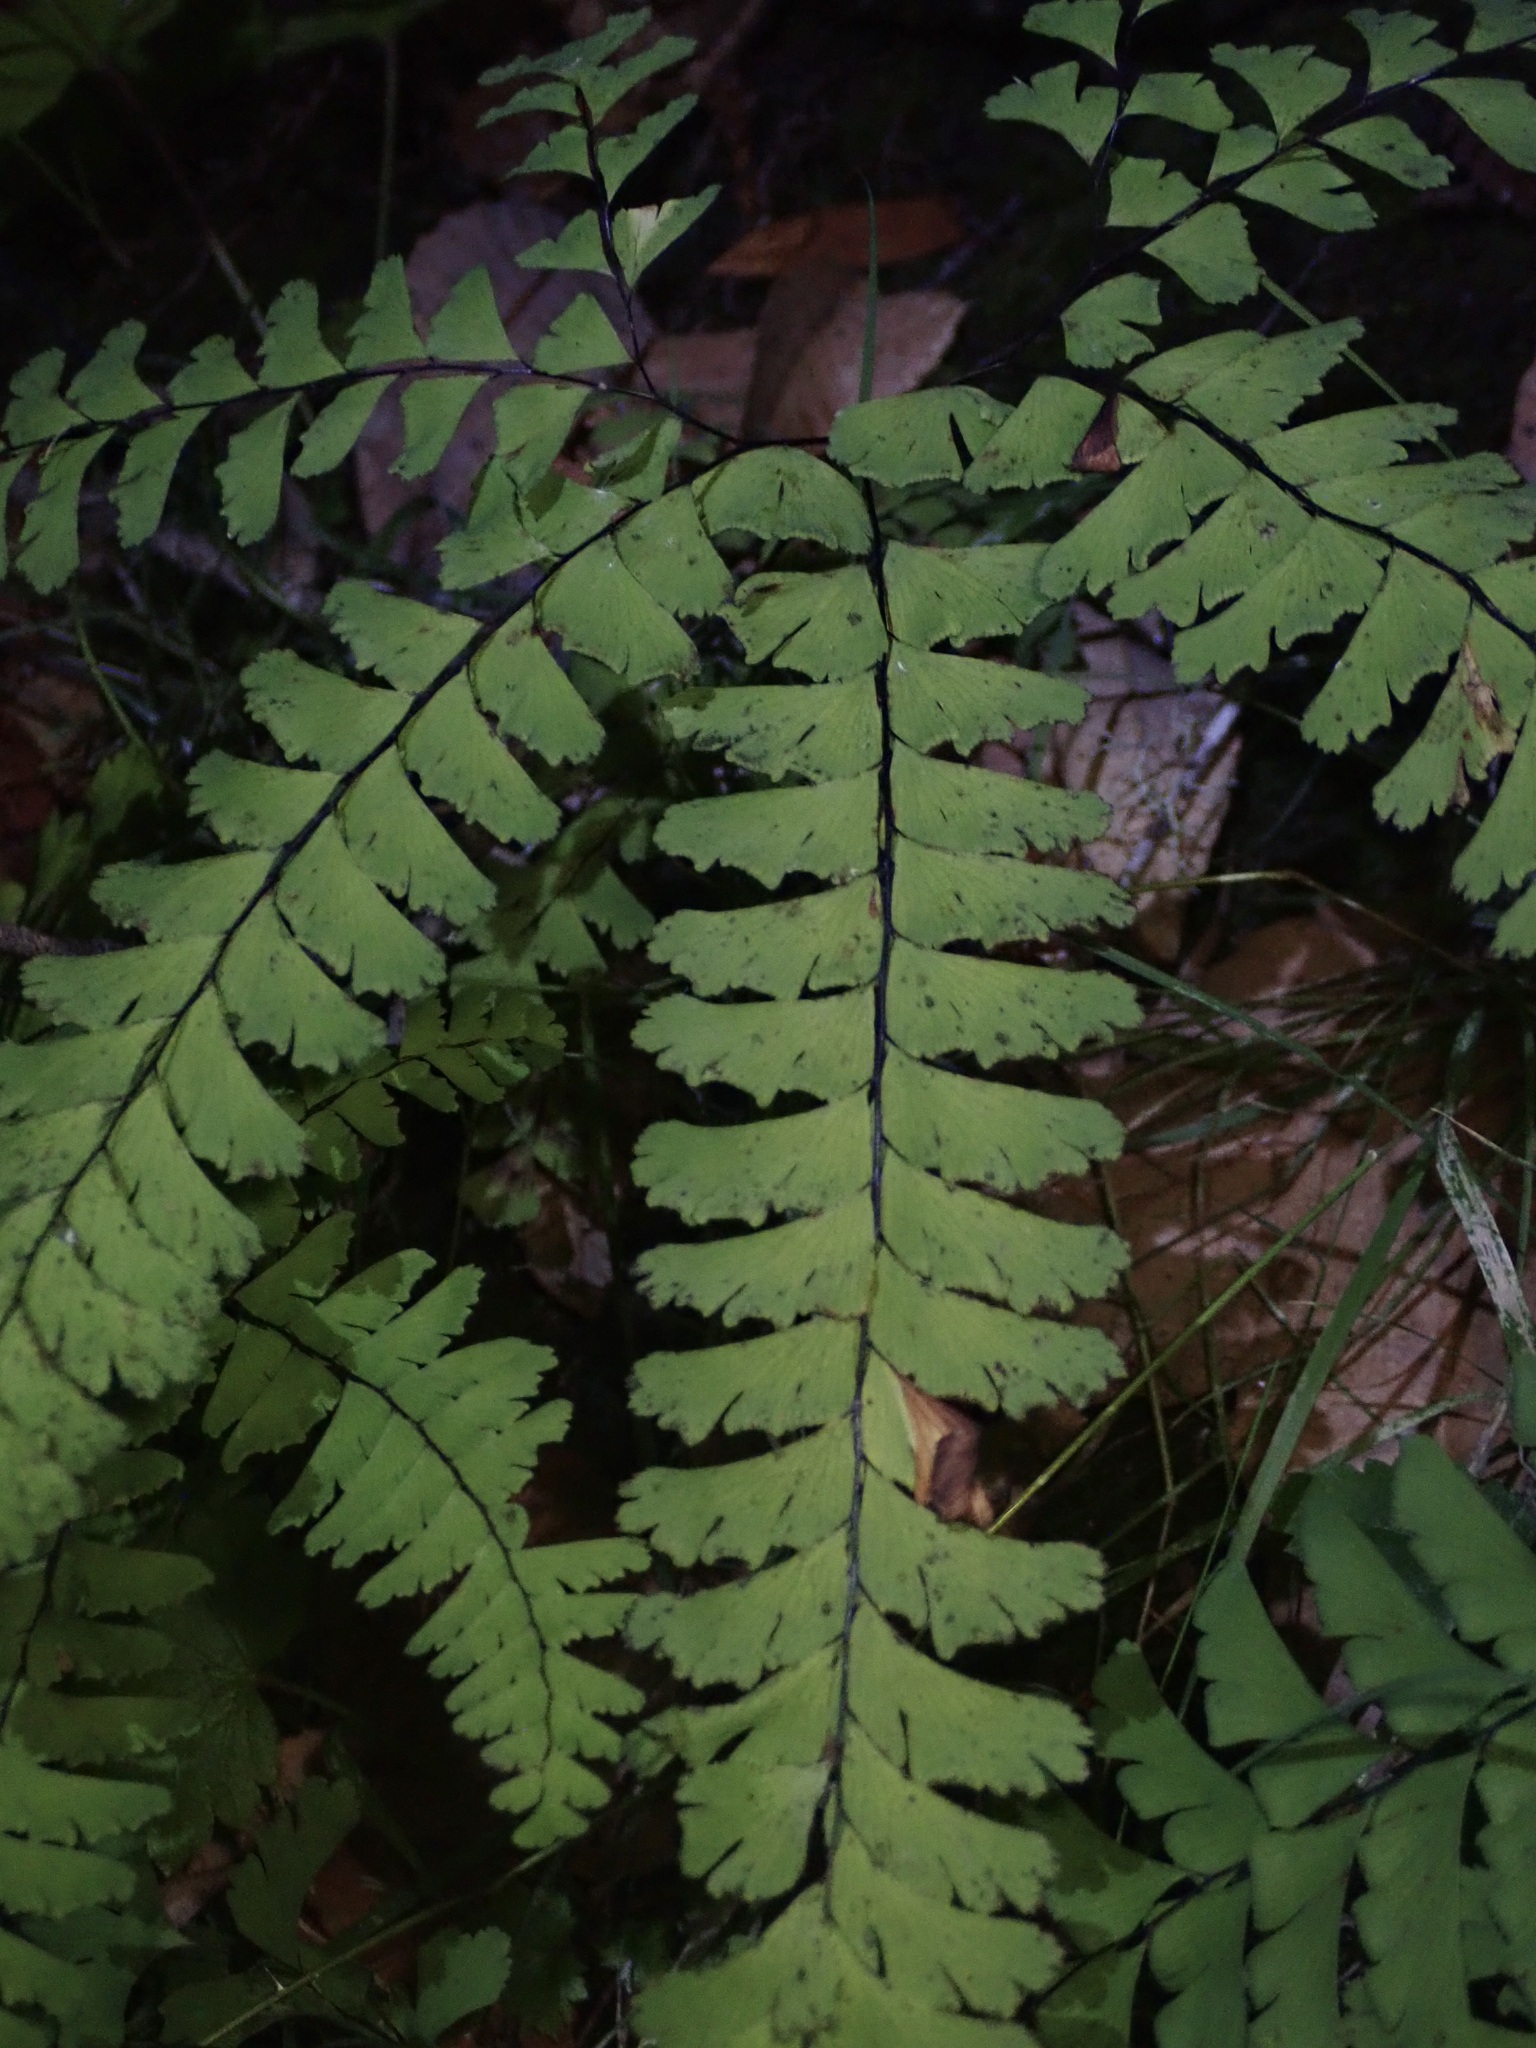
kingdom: Plantae
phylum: Tracheophyta
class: Polypodiopsida
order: Polypodiales
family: Pteridaceae
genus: Adiantum
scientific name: Adiantum aleuticum
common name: Aleutian maidenhair fern
